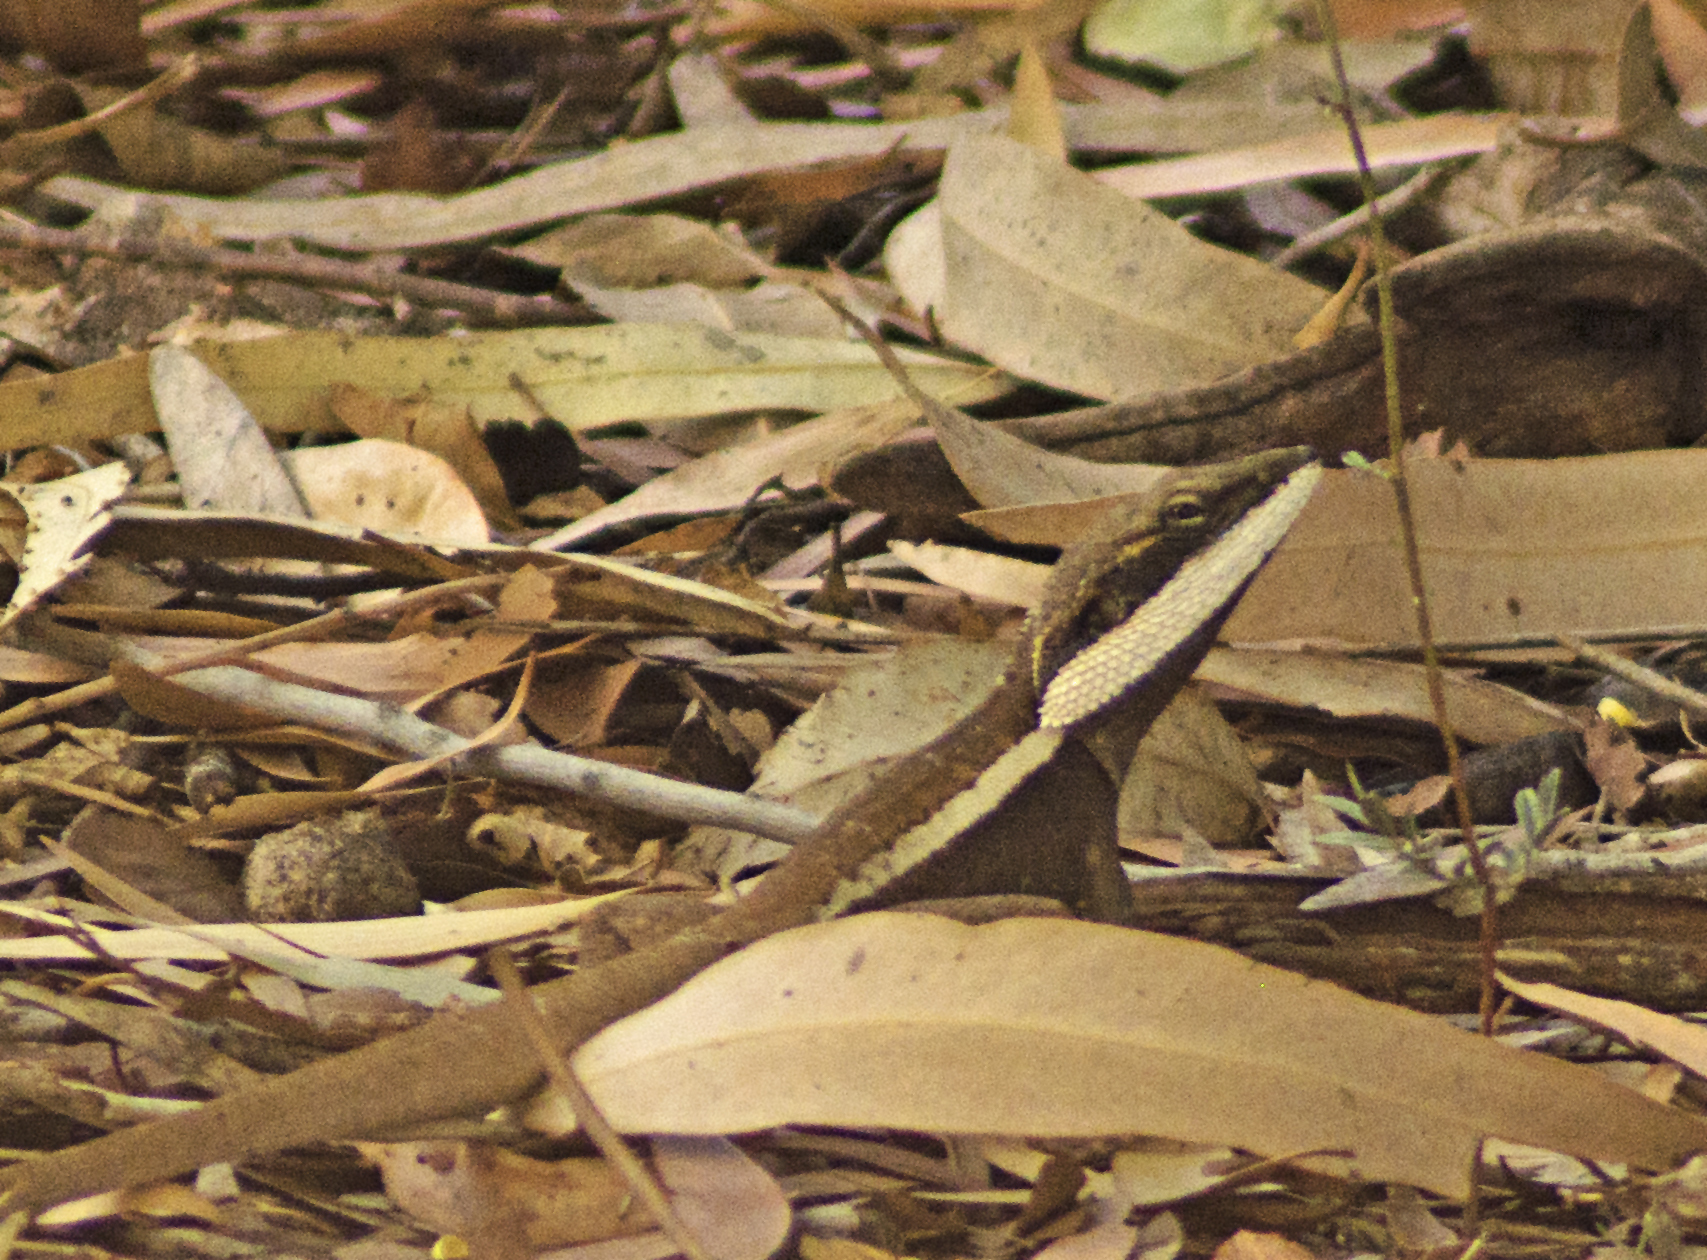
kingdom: Animalia
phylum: Chordata
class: Squamata
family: Agamidae
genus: Lophognathus
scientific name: Lophognathus horneri
